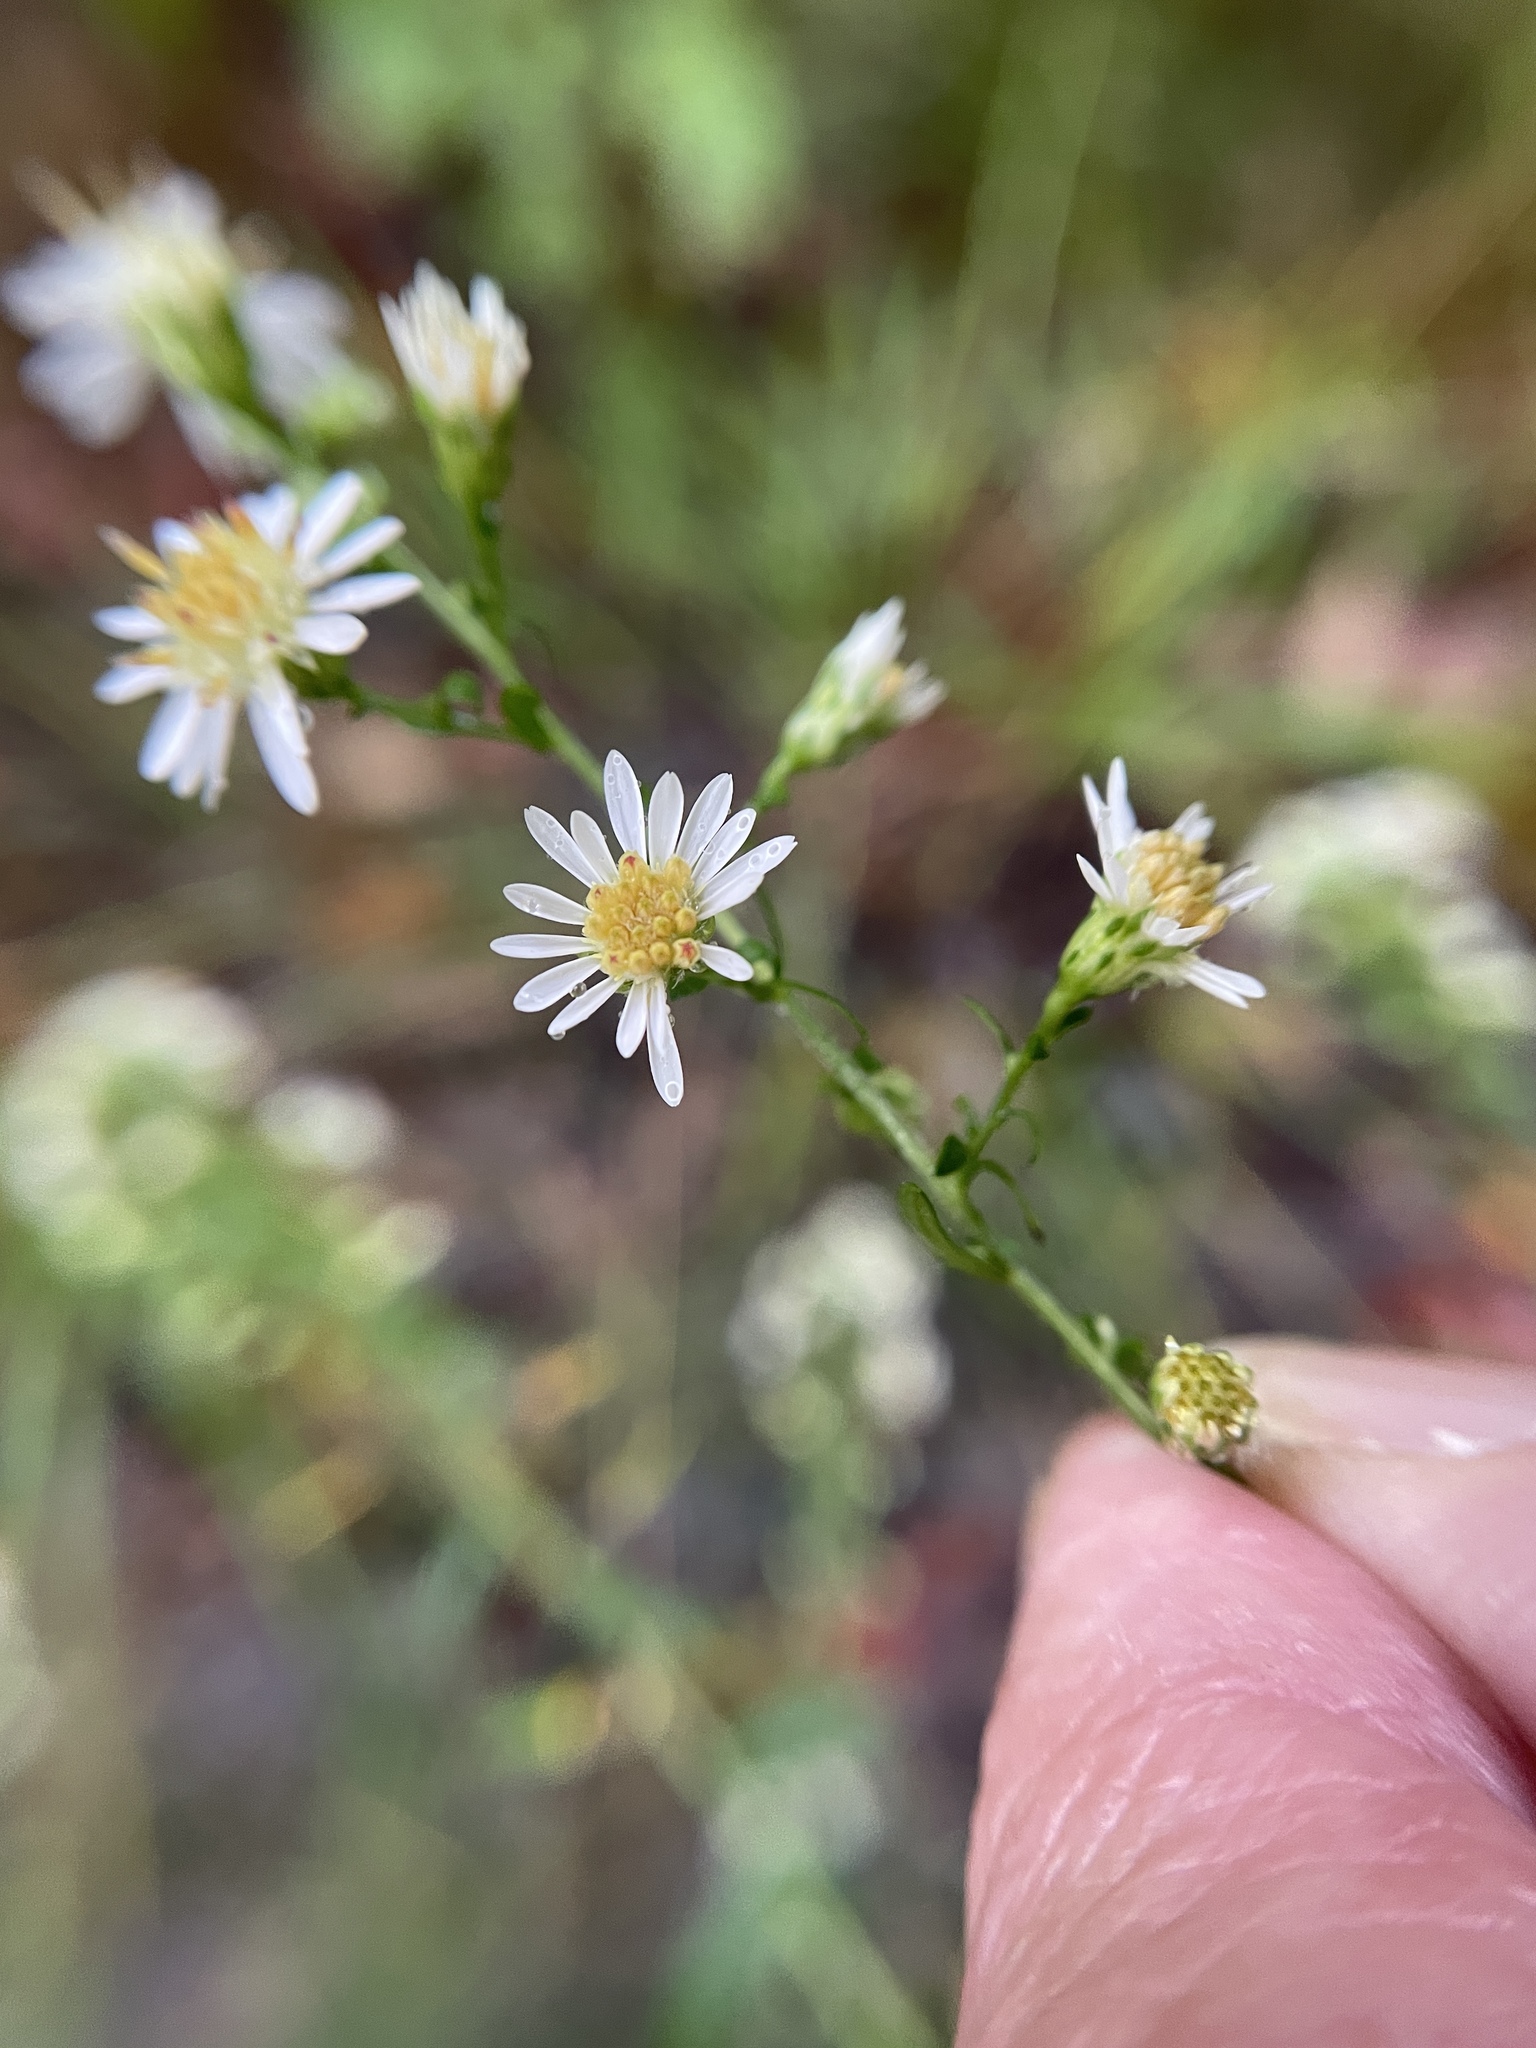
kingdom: Plantae
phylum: Tracheophyta
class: Magnoliopsida
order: Asterales
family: Asteraceae
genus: Symphyotrichum
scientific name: Symphyotrichum lateriflorum
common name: Calico aster
